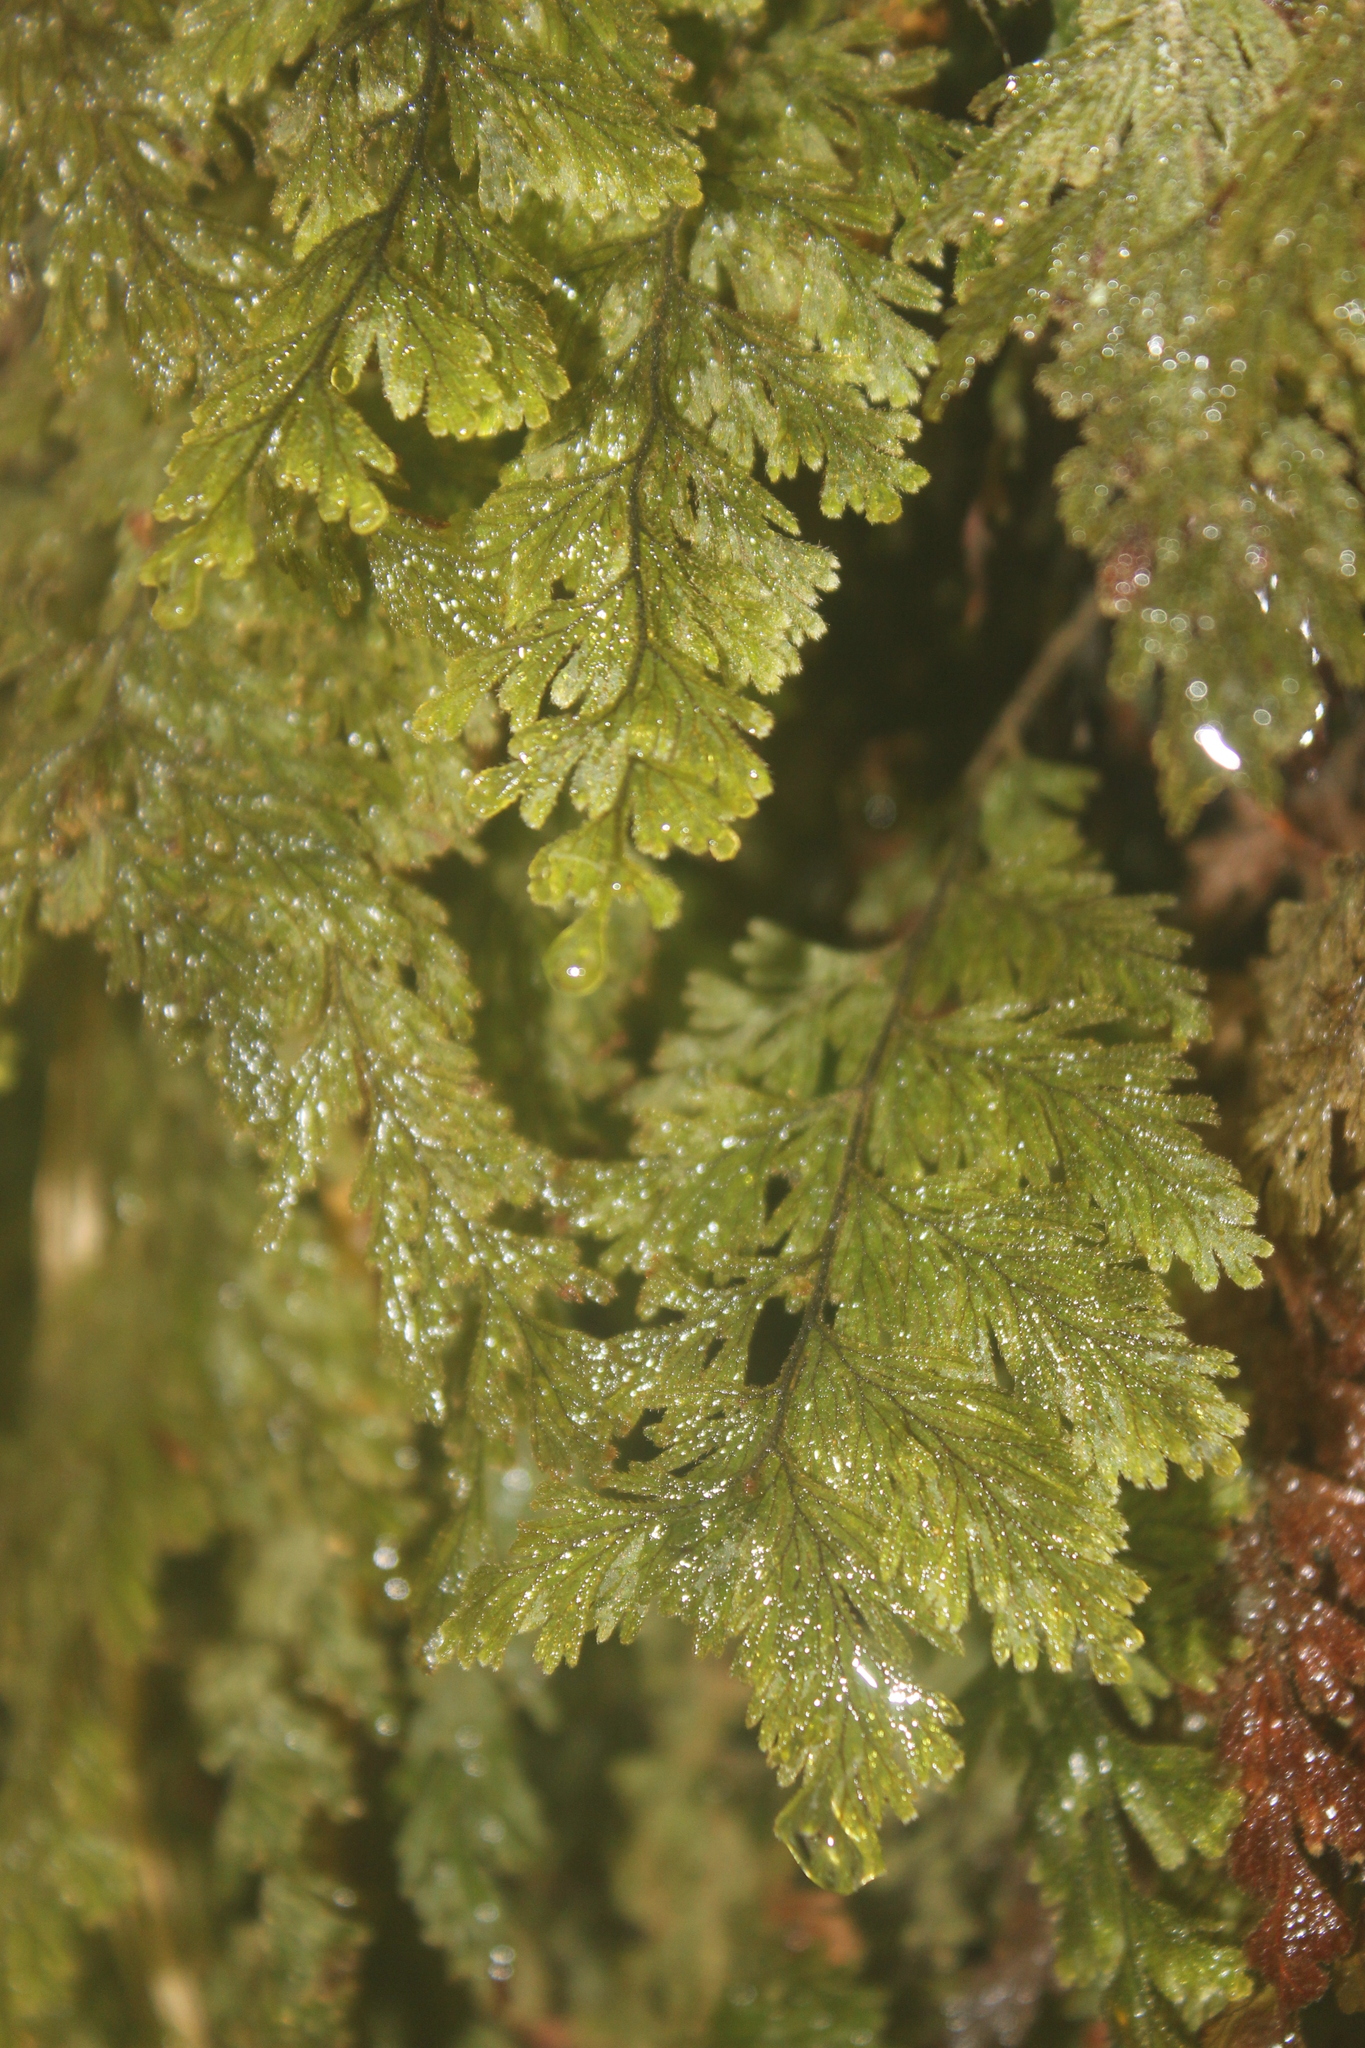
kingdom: Plantae
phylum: Tracheophyta
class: Polypodiopsida
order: Hymenophyllales
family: Hymenophyllaceae
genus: Hymenophyllum
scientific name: Hymenophyllum frankliniae
